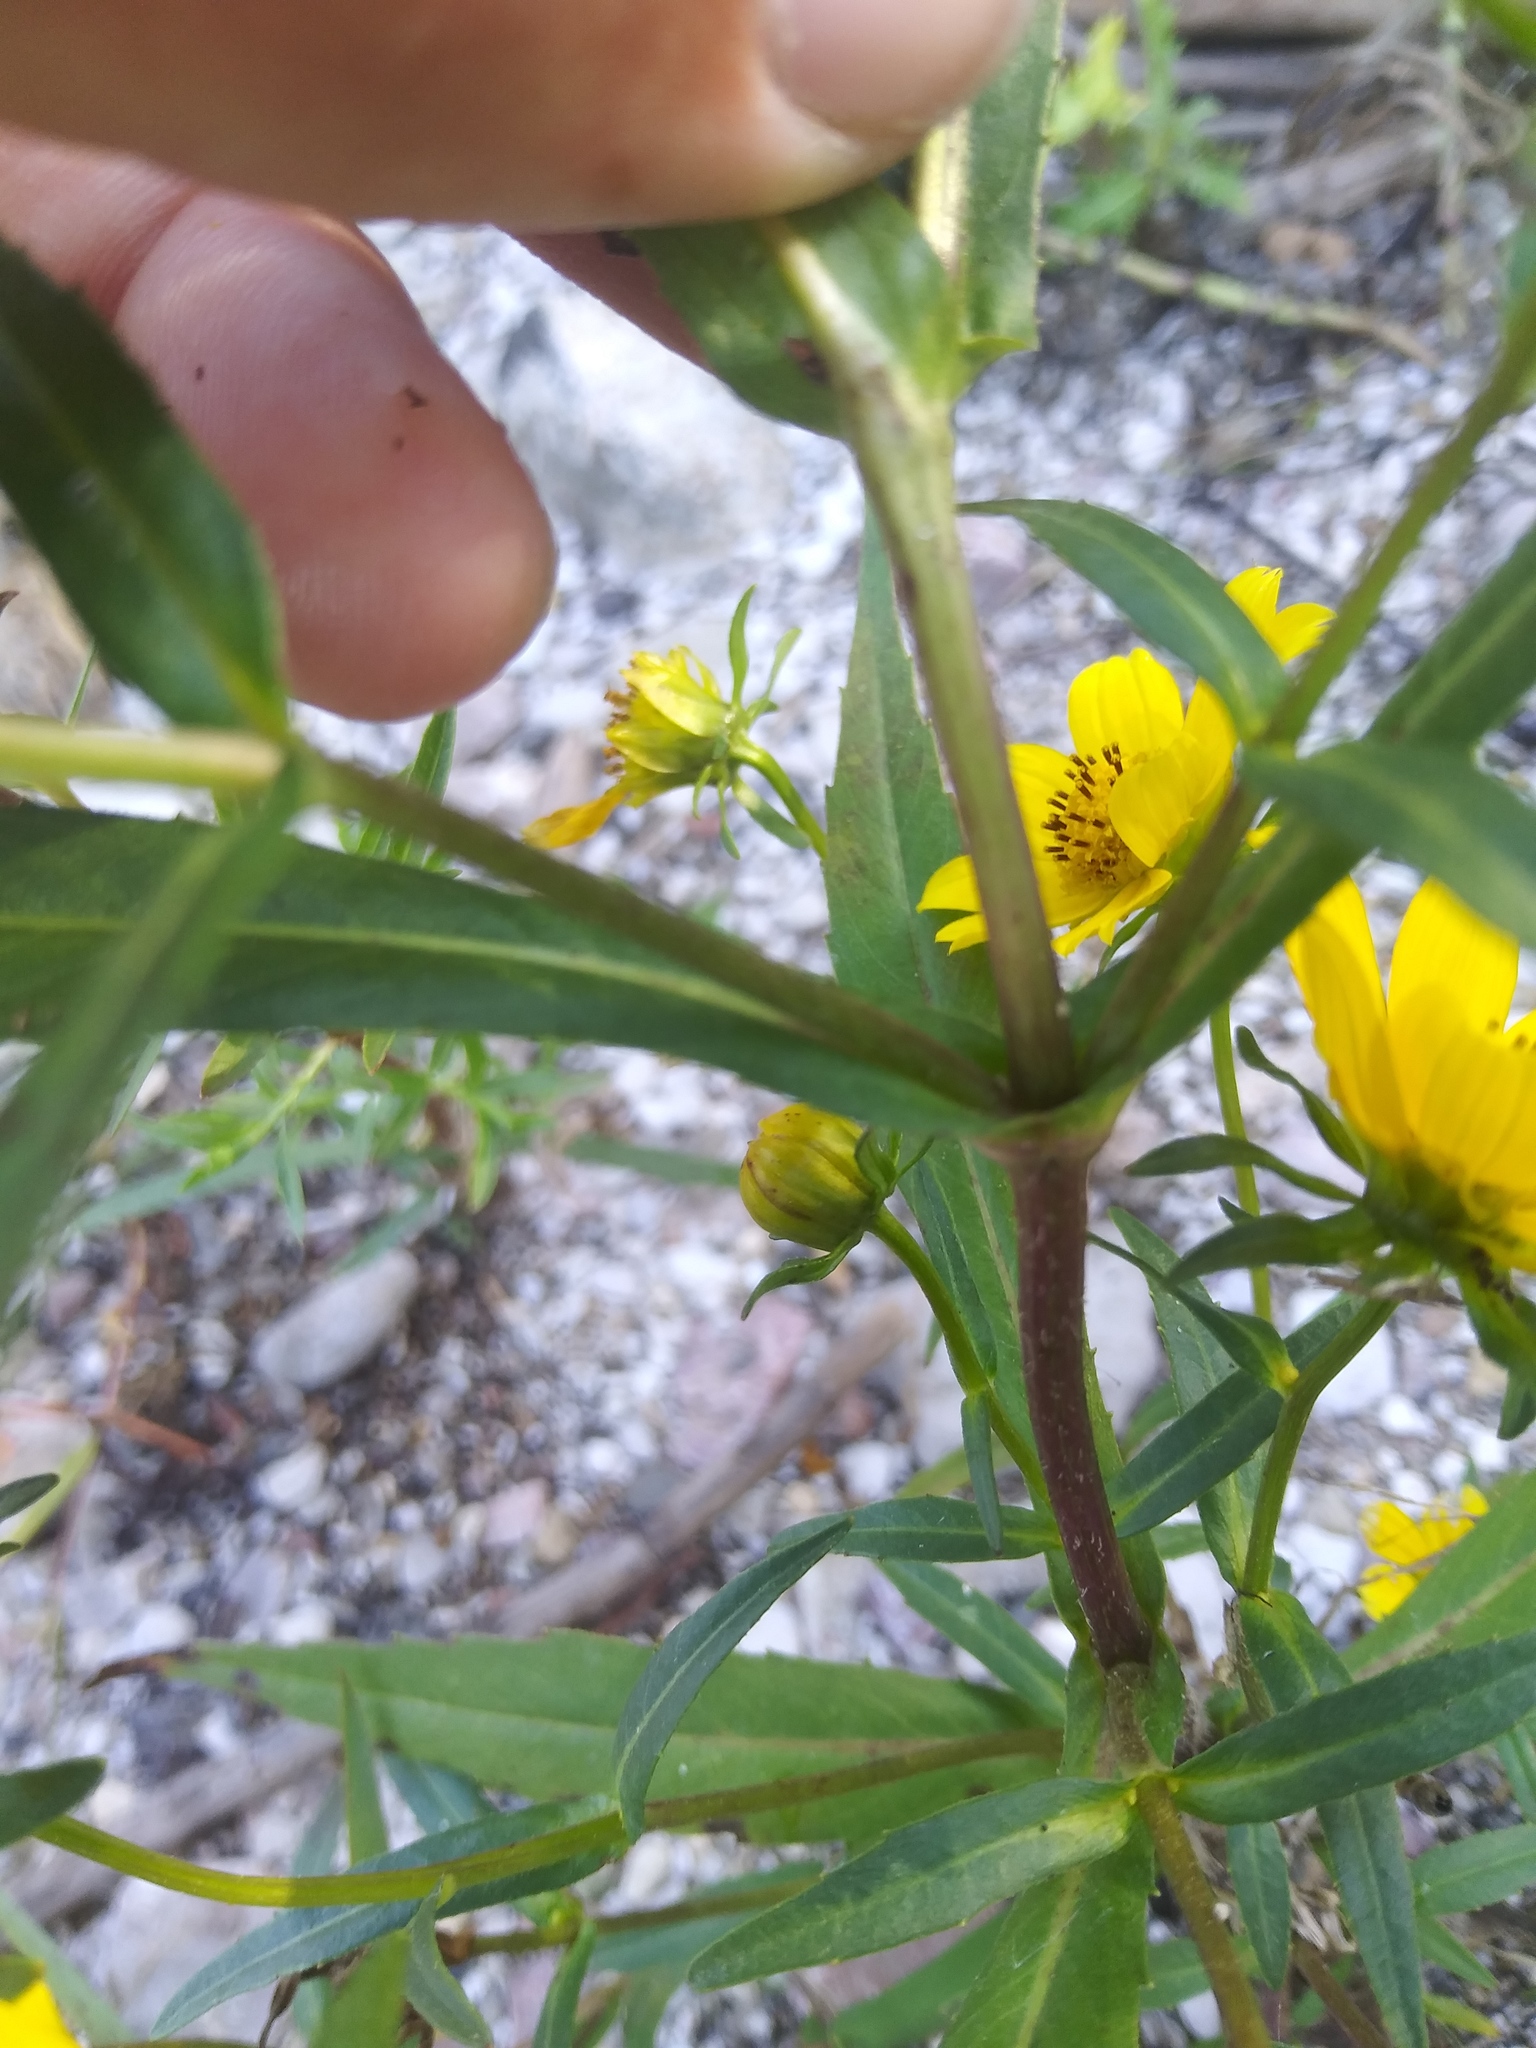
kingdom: Plantae
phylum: Tracheophyta
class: Magnoliopsida
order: Asterales
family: Asteraceae
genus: Bidens
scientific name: Bidens cernua
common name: Nodding bur-marigold
